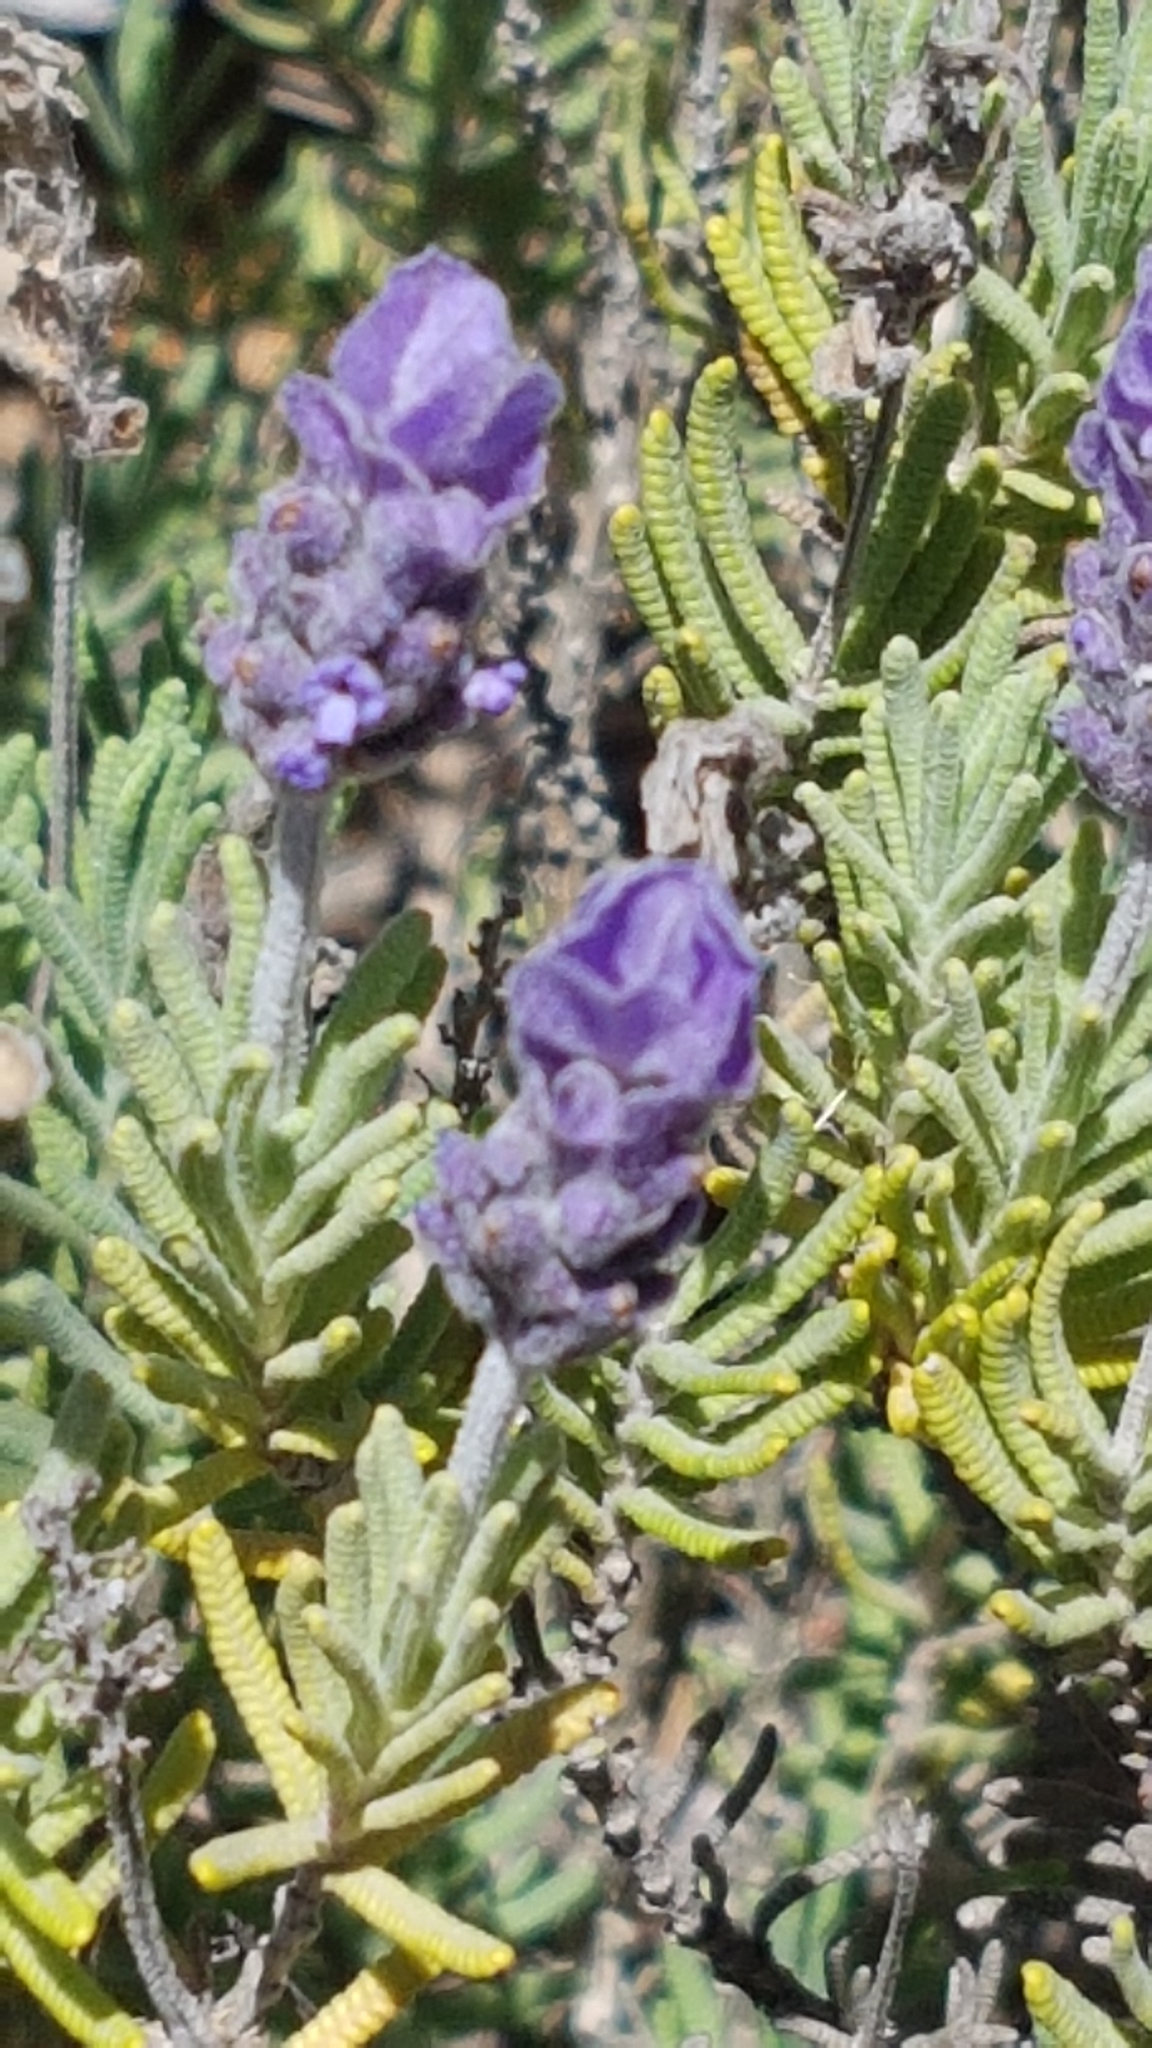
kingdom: Plantae
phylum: Tracheophyta
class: Magnoliopsida
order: Lamiales
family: Lamiaceae
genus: Lavandula
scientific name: Lavandula dentata
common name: French lavender
